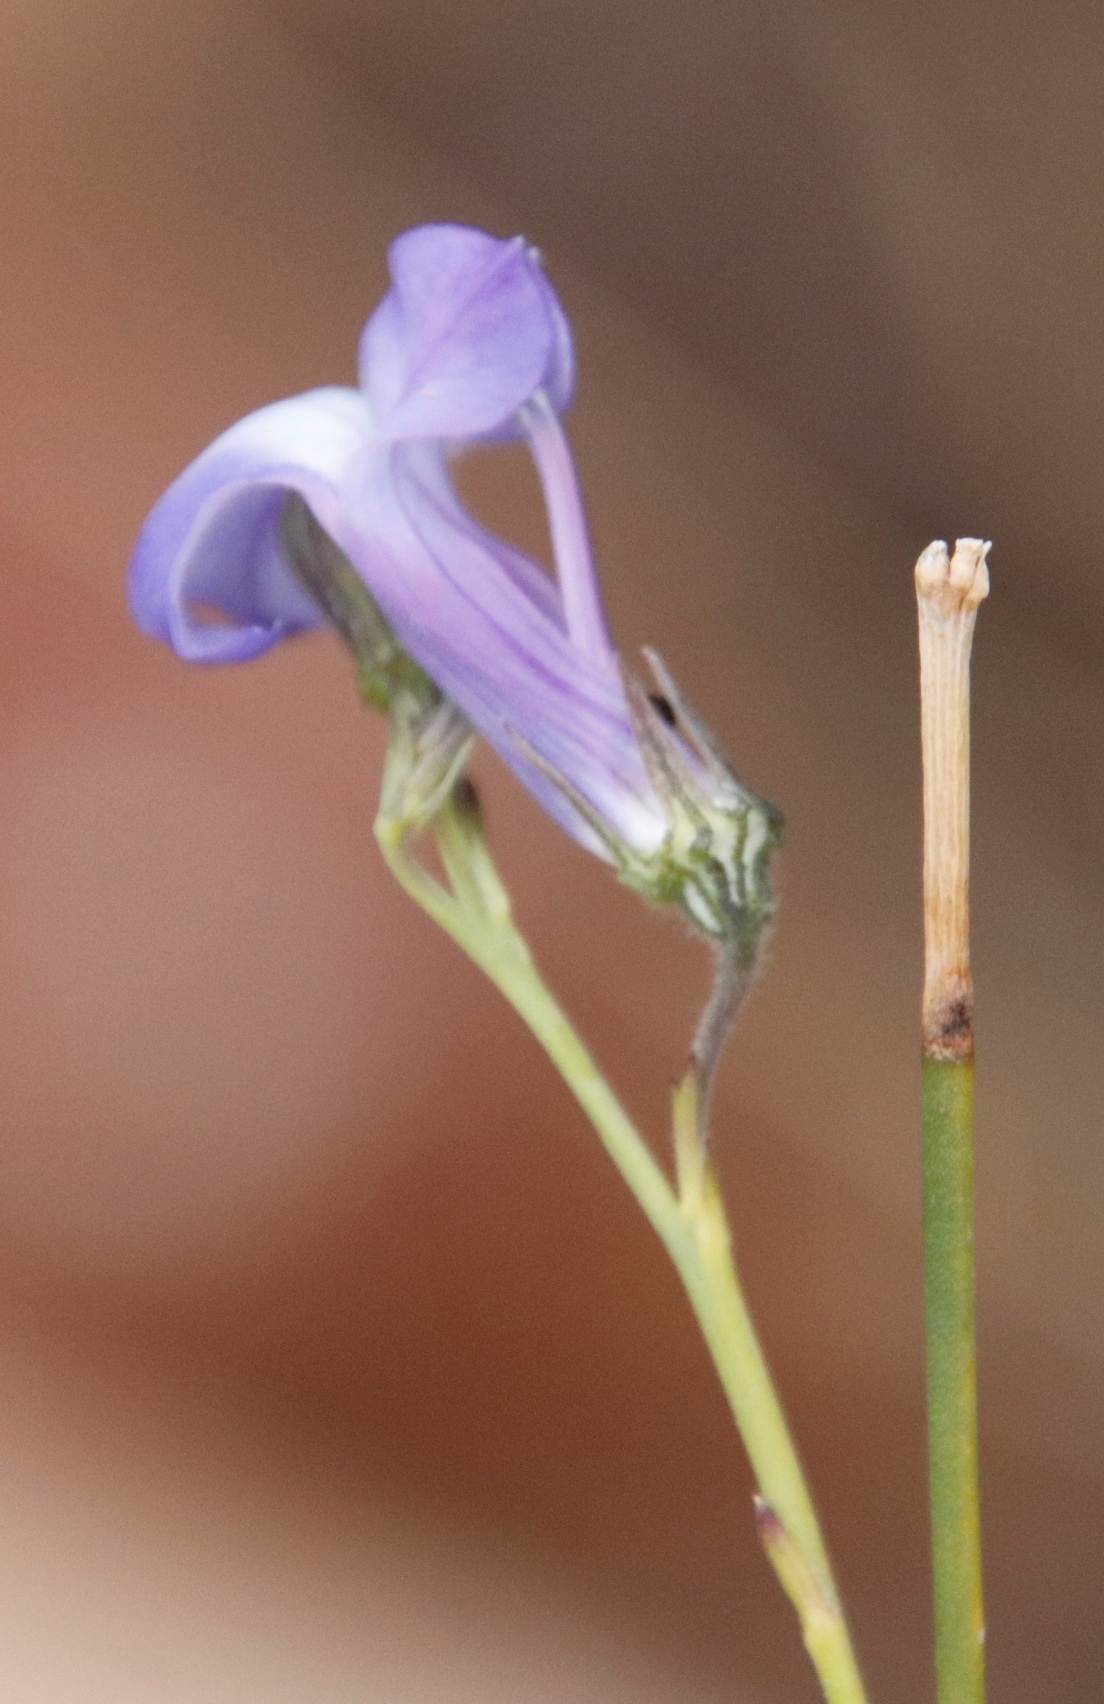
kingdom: Plantae
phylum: Tracheophyta
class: Magnoliopsida
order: Asterales
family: Campanulaceae
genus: Lobelia
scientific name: Lobelia linearis
